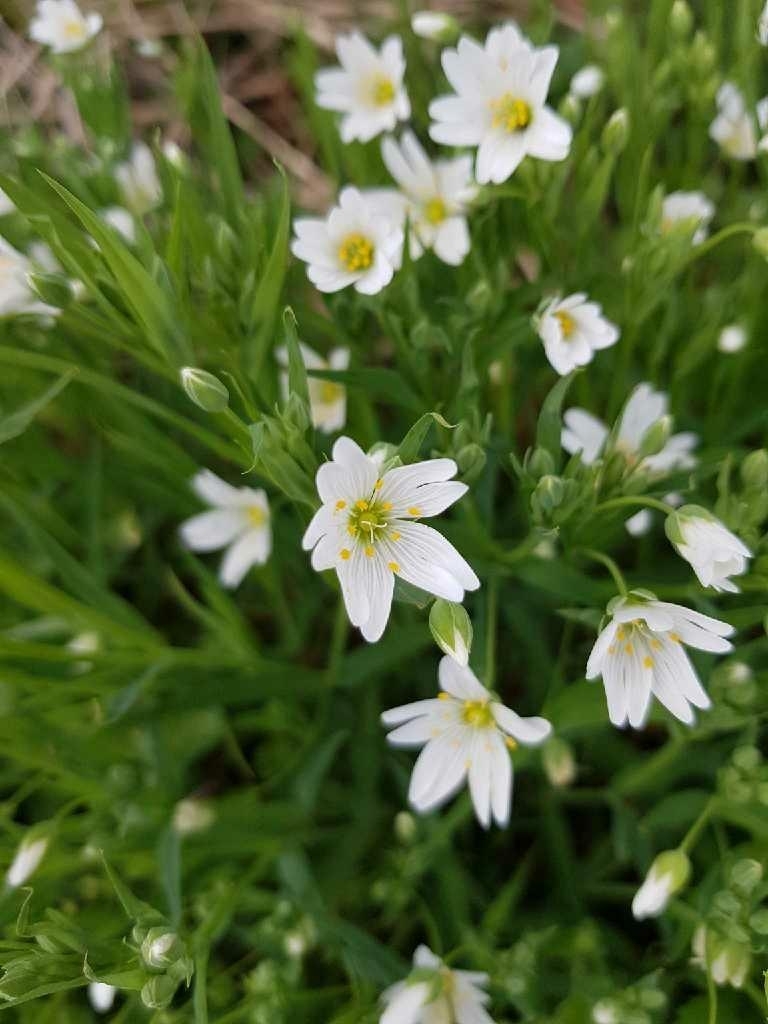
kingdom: Plantae
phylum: Tracheophyta
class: Magnoliopsida
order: Caryophyllales
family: Caryophyllaceae
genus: Rabelera
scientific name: Rabelera holostea
